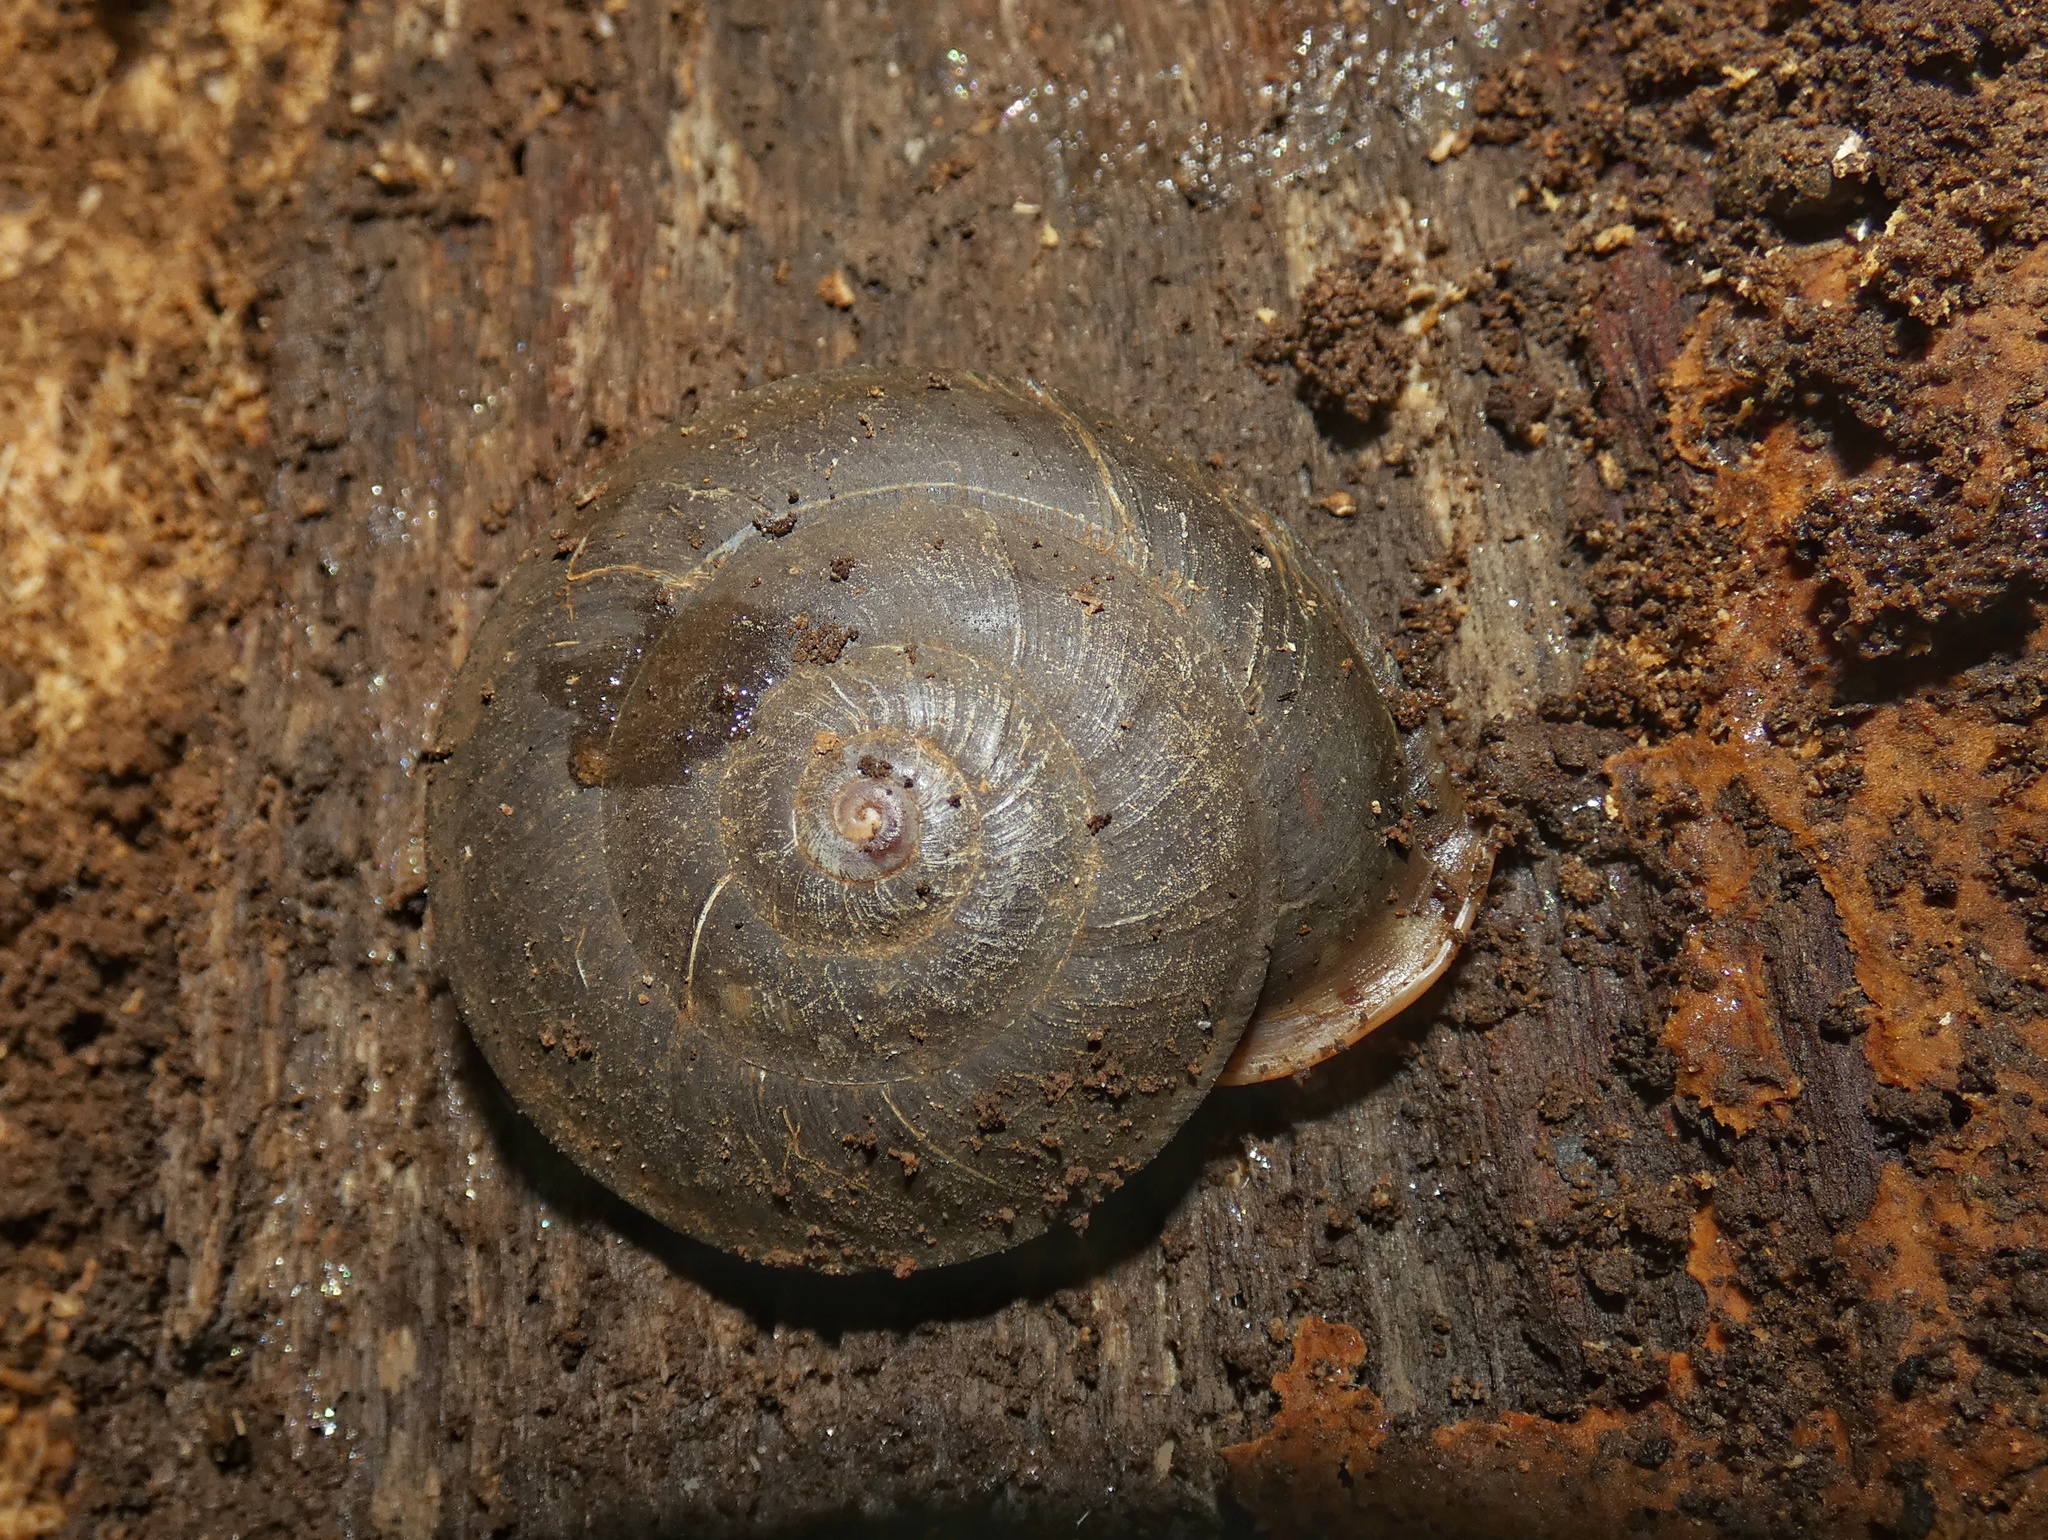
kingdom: Animalia
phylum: Mollusca
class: Gastropoda
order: Stylommatophora
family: Labyrinthidae
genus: Labyrinthus
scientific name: Labyrinthus otis
